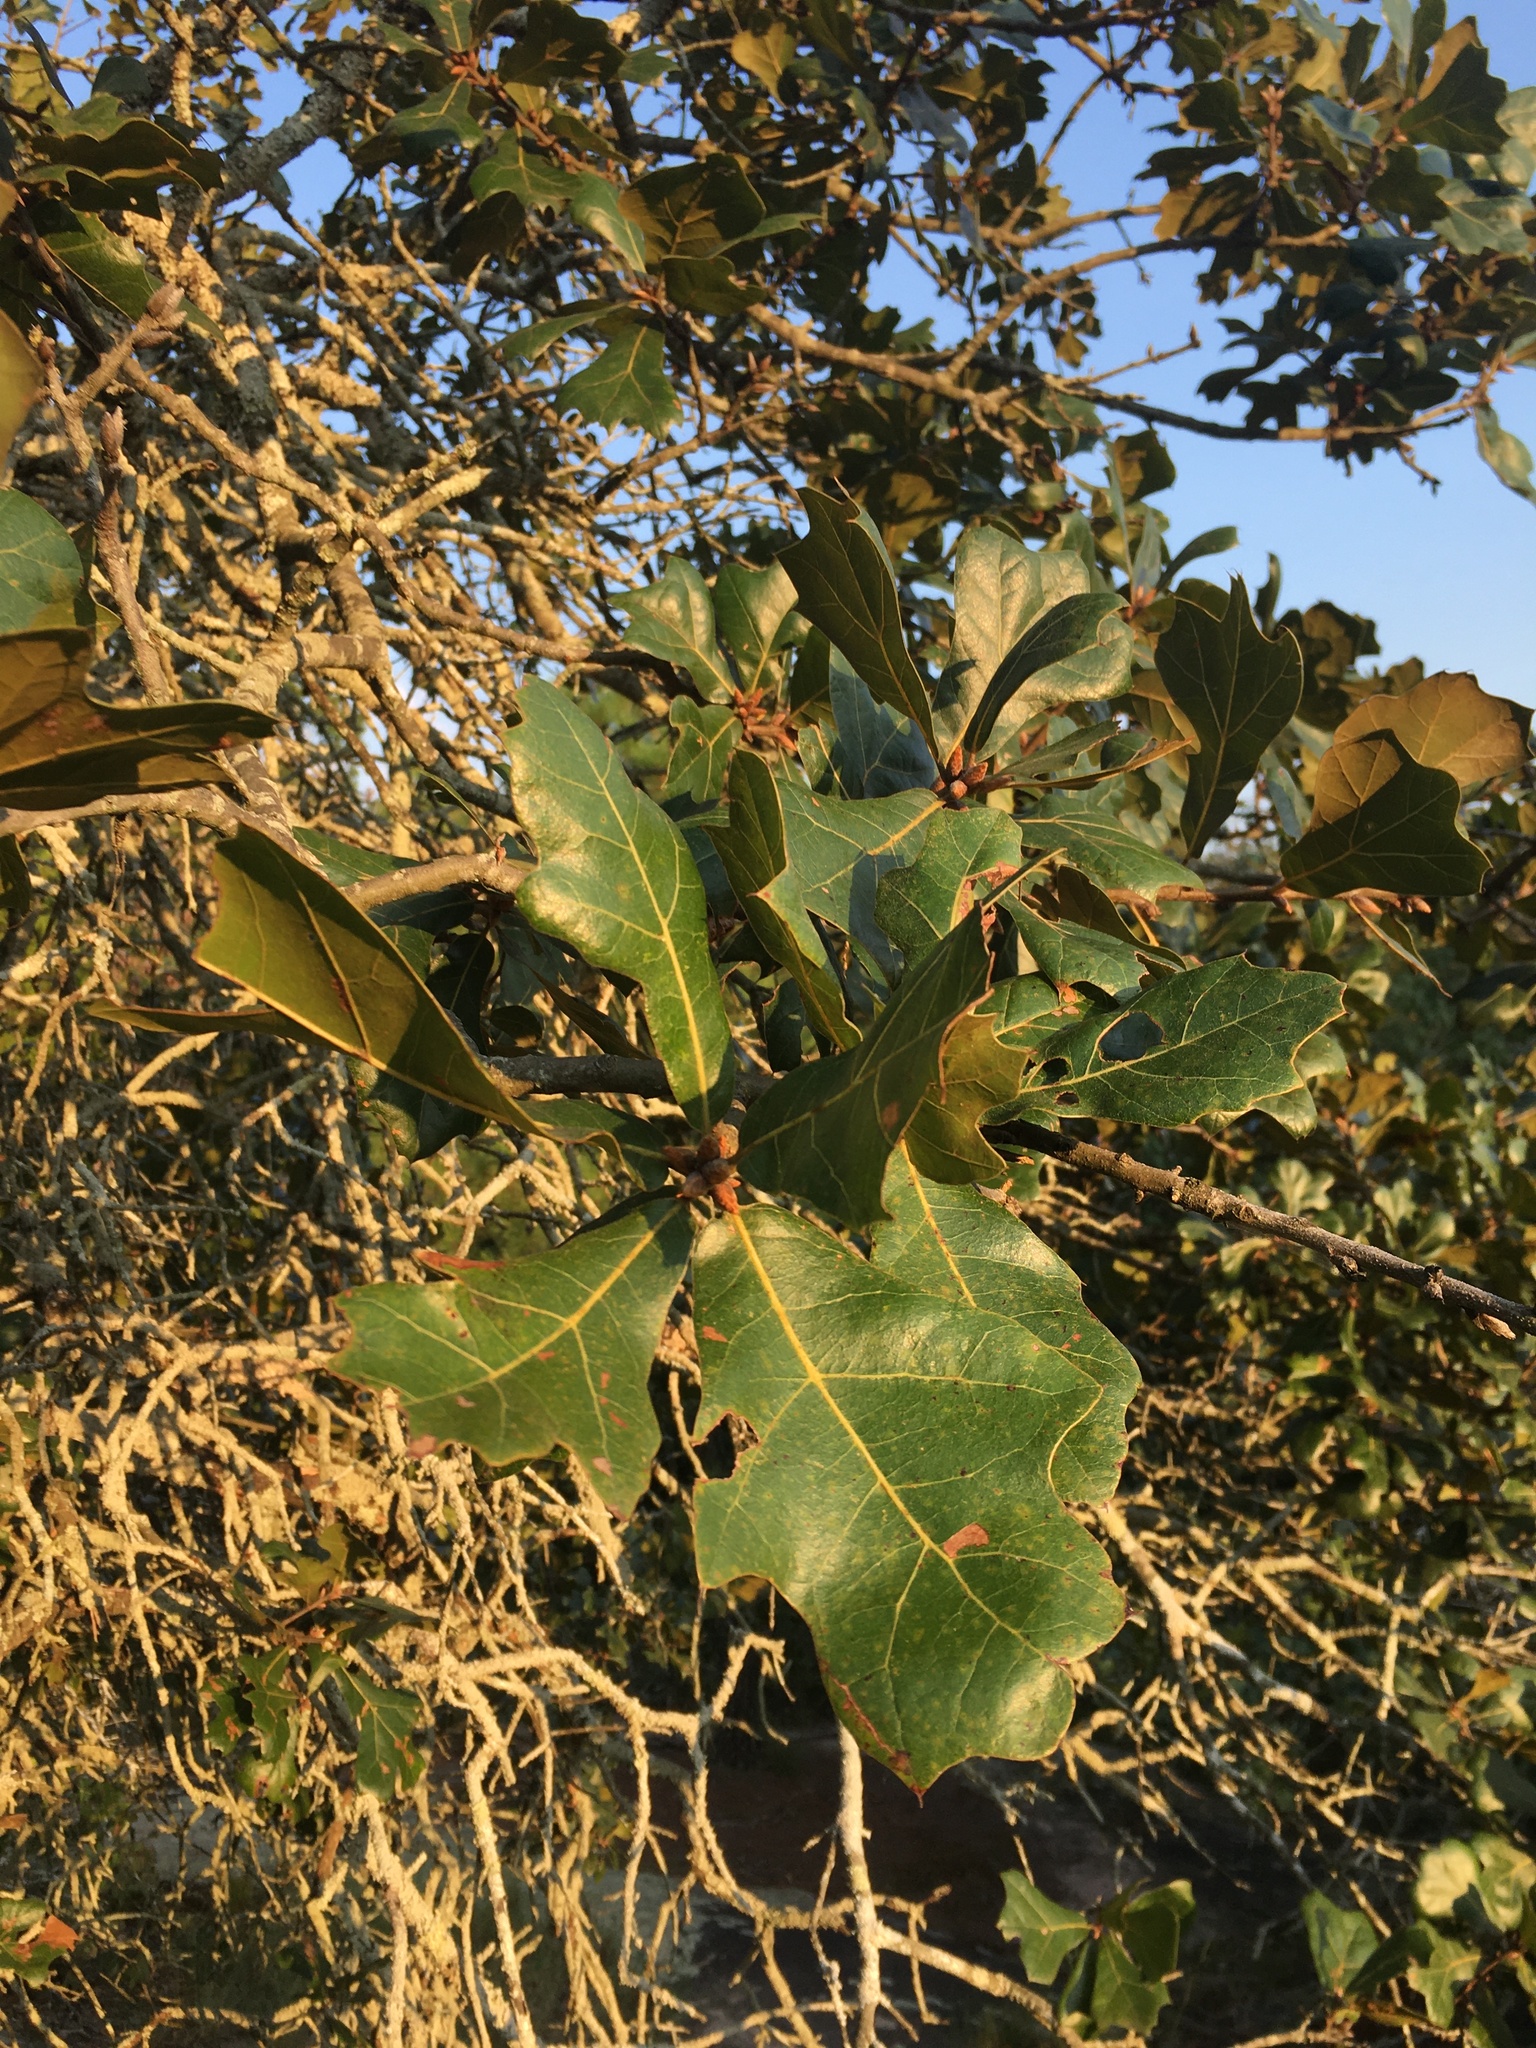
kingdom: Plantae
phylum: Tracheophyta
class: Magnoliopsida
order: Fagales
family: Fagaceae
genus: Quercus
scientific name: Quercus marilandica
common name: Blackjack oak
